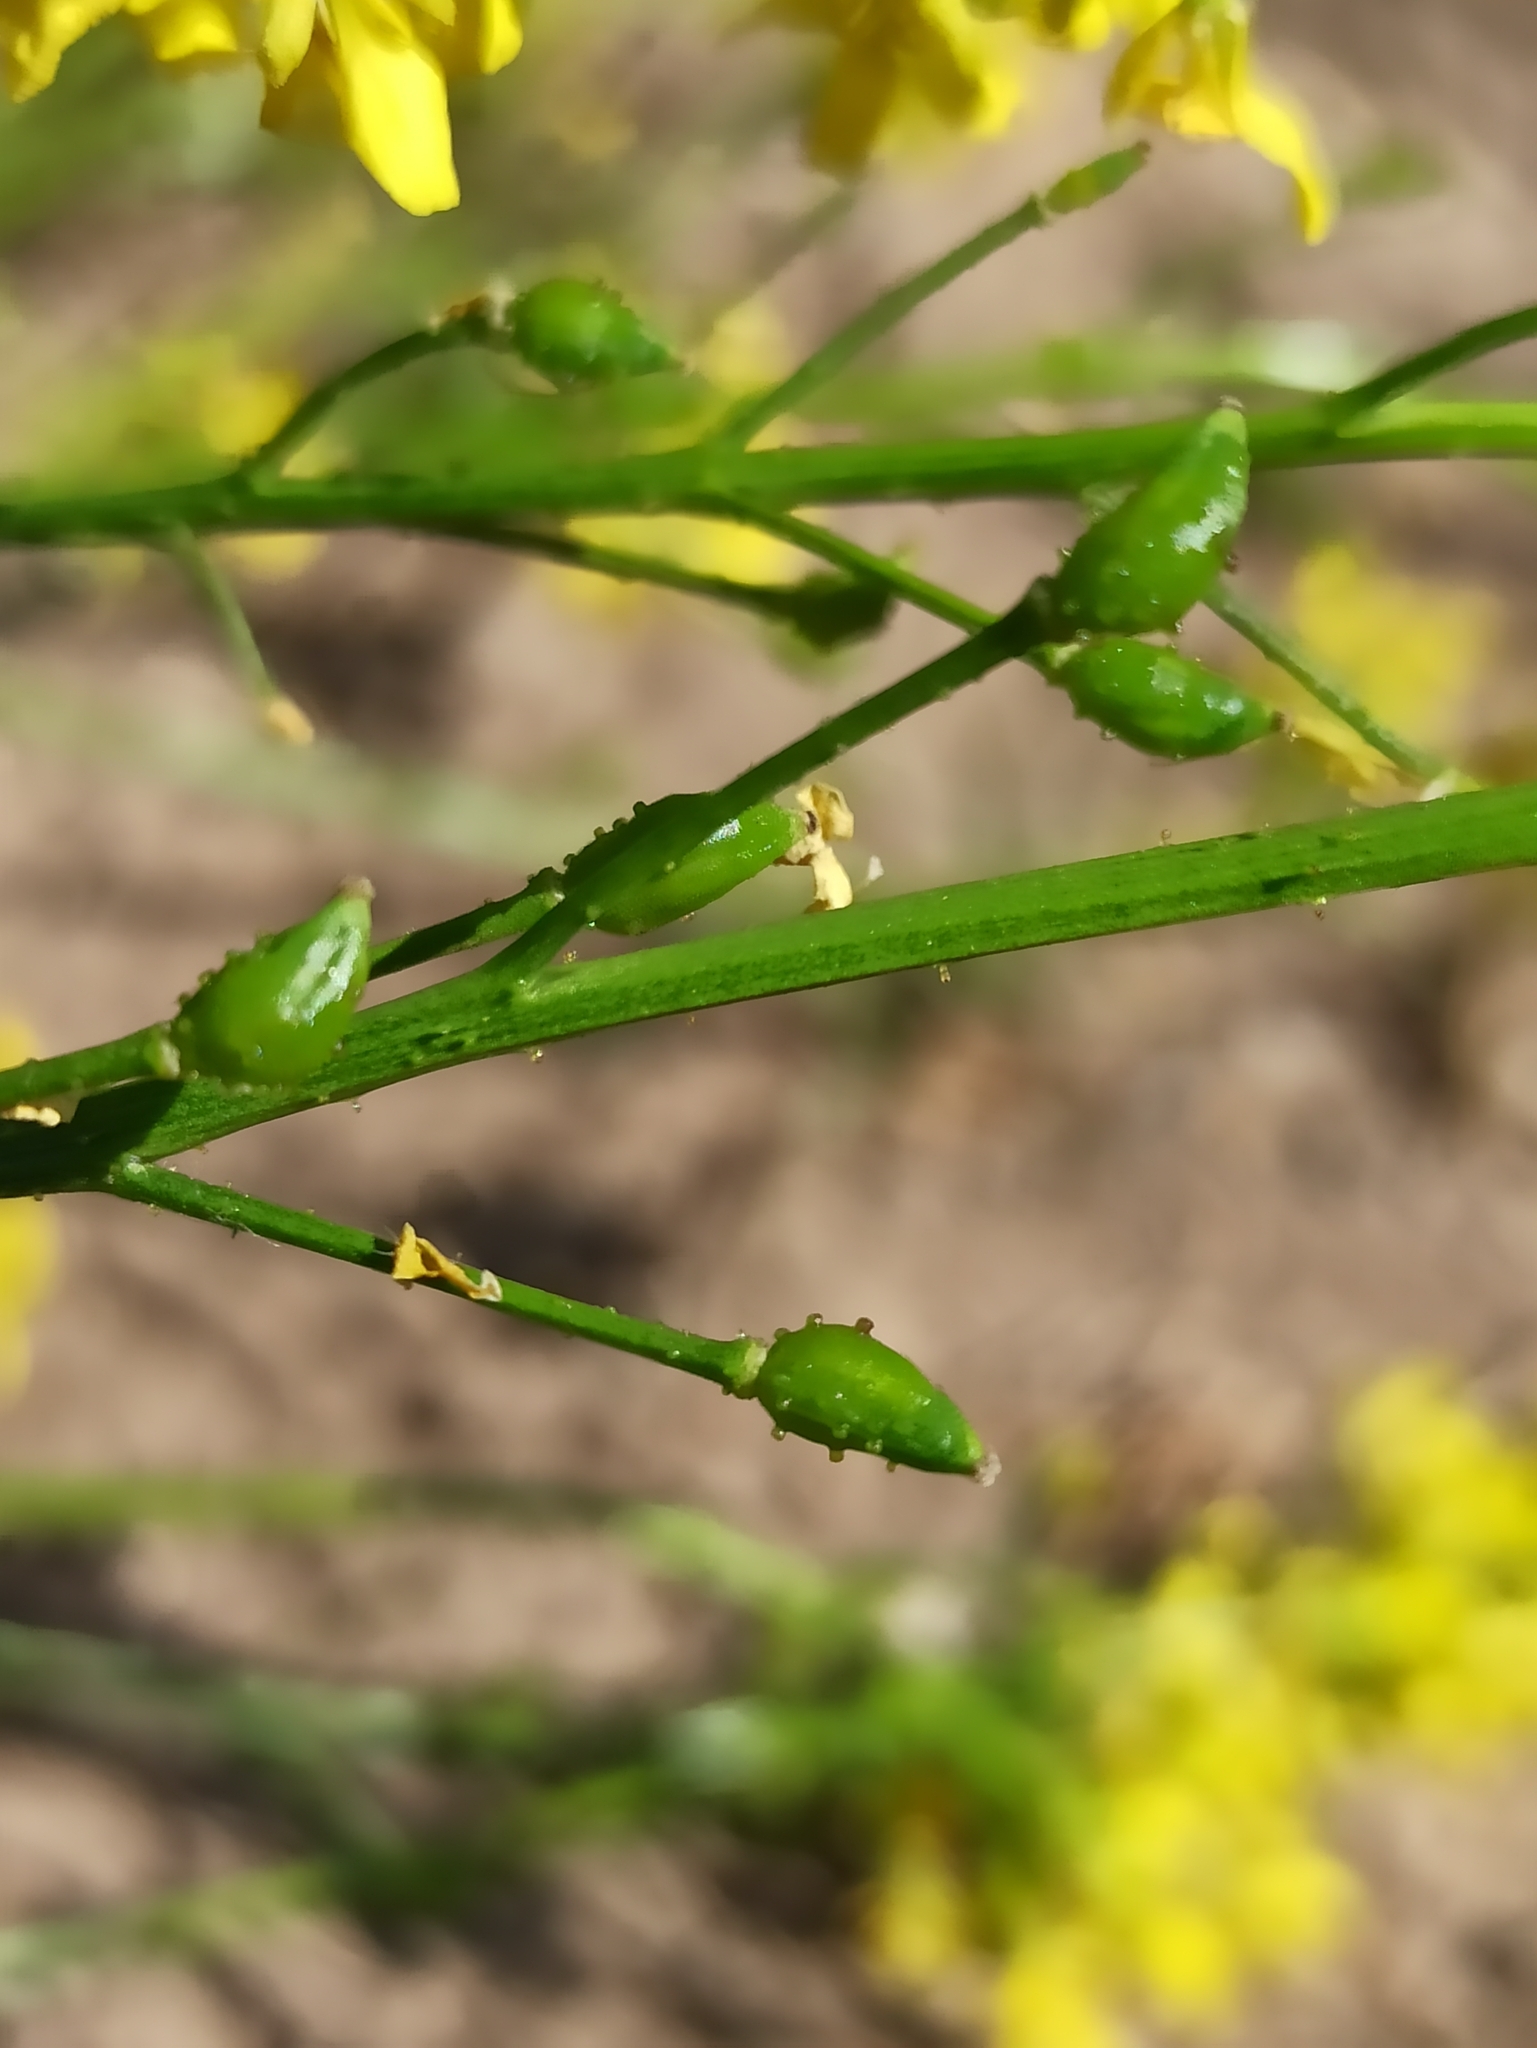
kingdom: Plantae
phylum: Tracheophyta
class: Magnoliopsida
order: Brassicales
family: Brassicaceae
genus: Bunias
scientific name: Bunias orientalis
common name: Warty-cabbage
